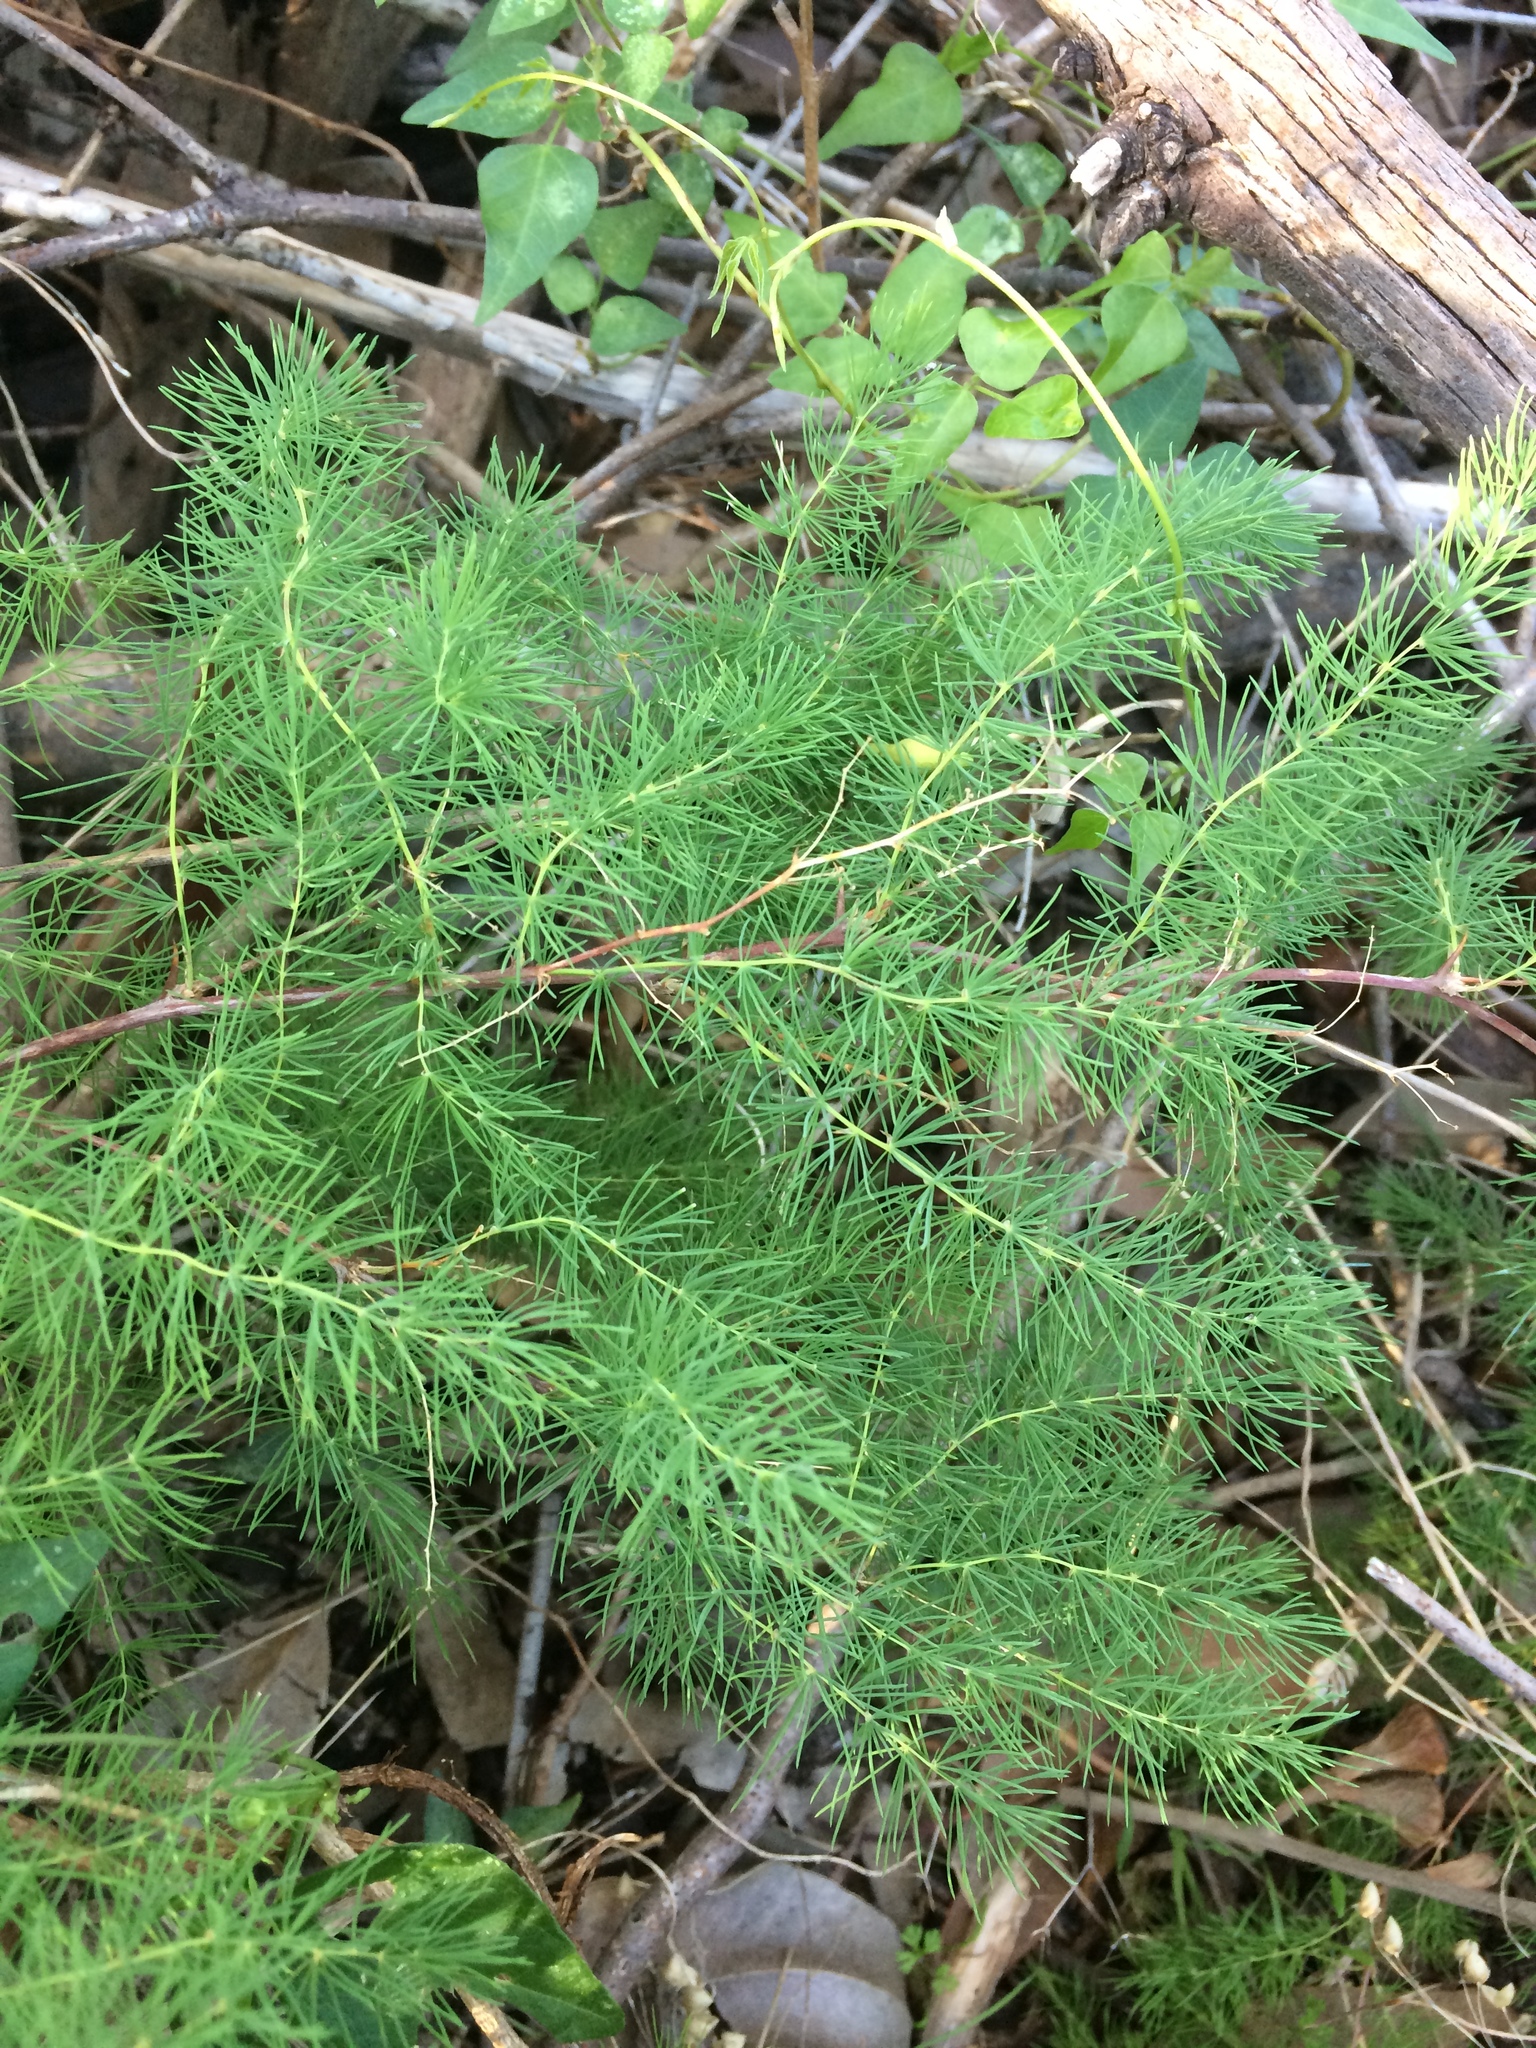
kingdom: Plantae
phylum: Tracheophyta
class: Liliopsida
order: Asparagales
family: Asparagaceae
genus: Asparagus
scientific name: Asparagus rubicundus
